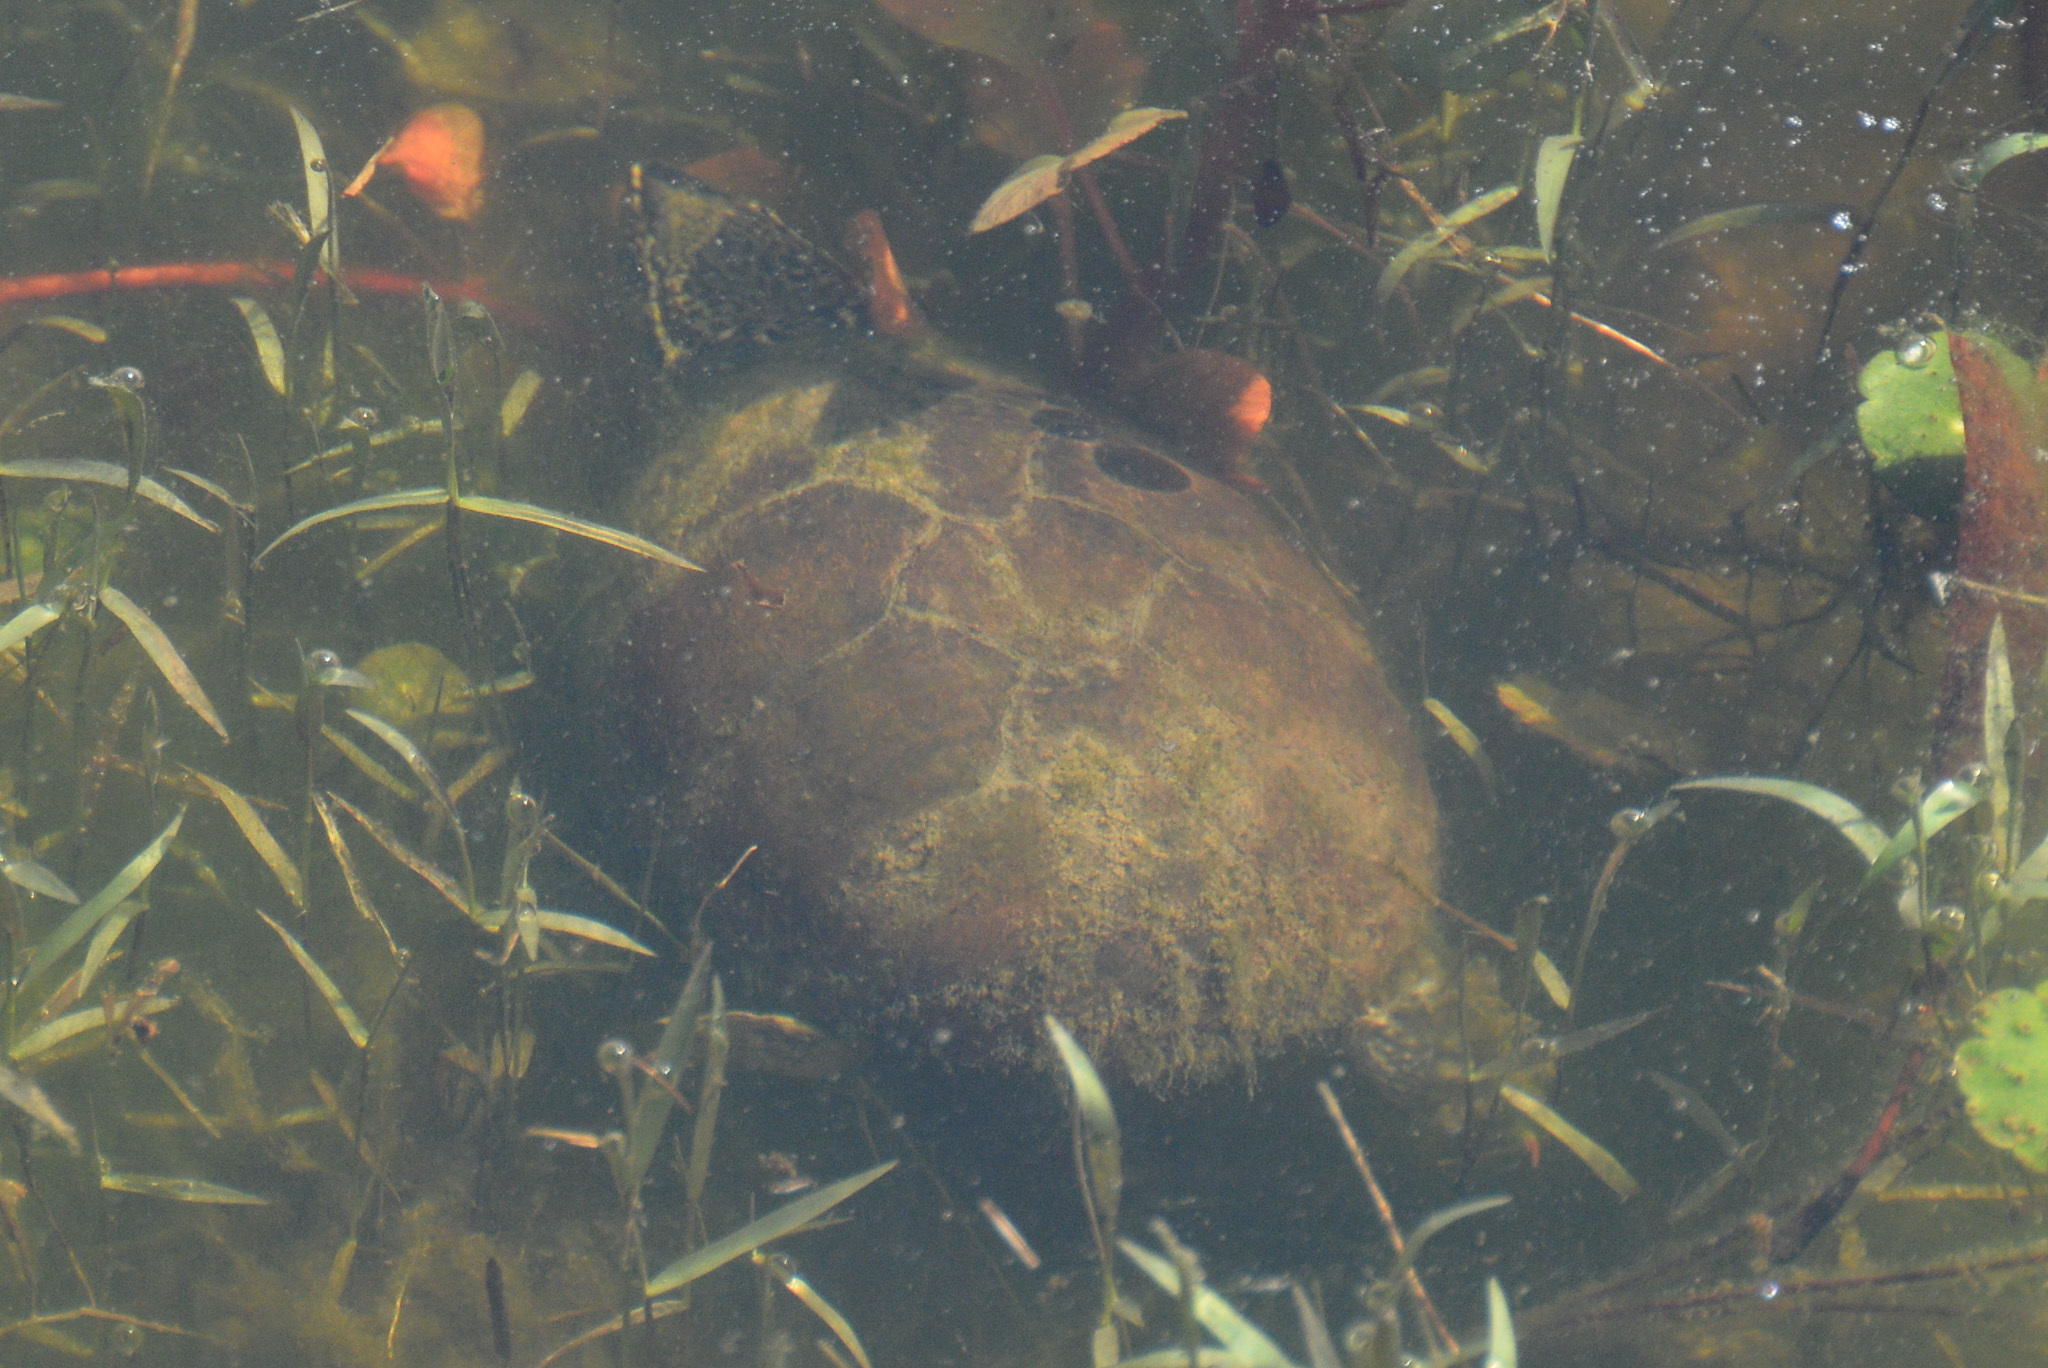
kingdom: Animalia
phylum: Chordata
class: Testudines
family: Kinosternidae
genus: Sternotherus
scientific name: Sternotherus odoratus
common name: Common musk turtle
